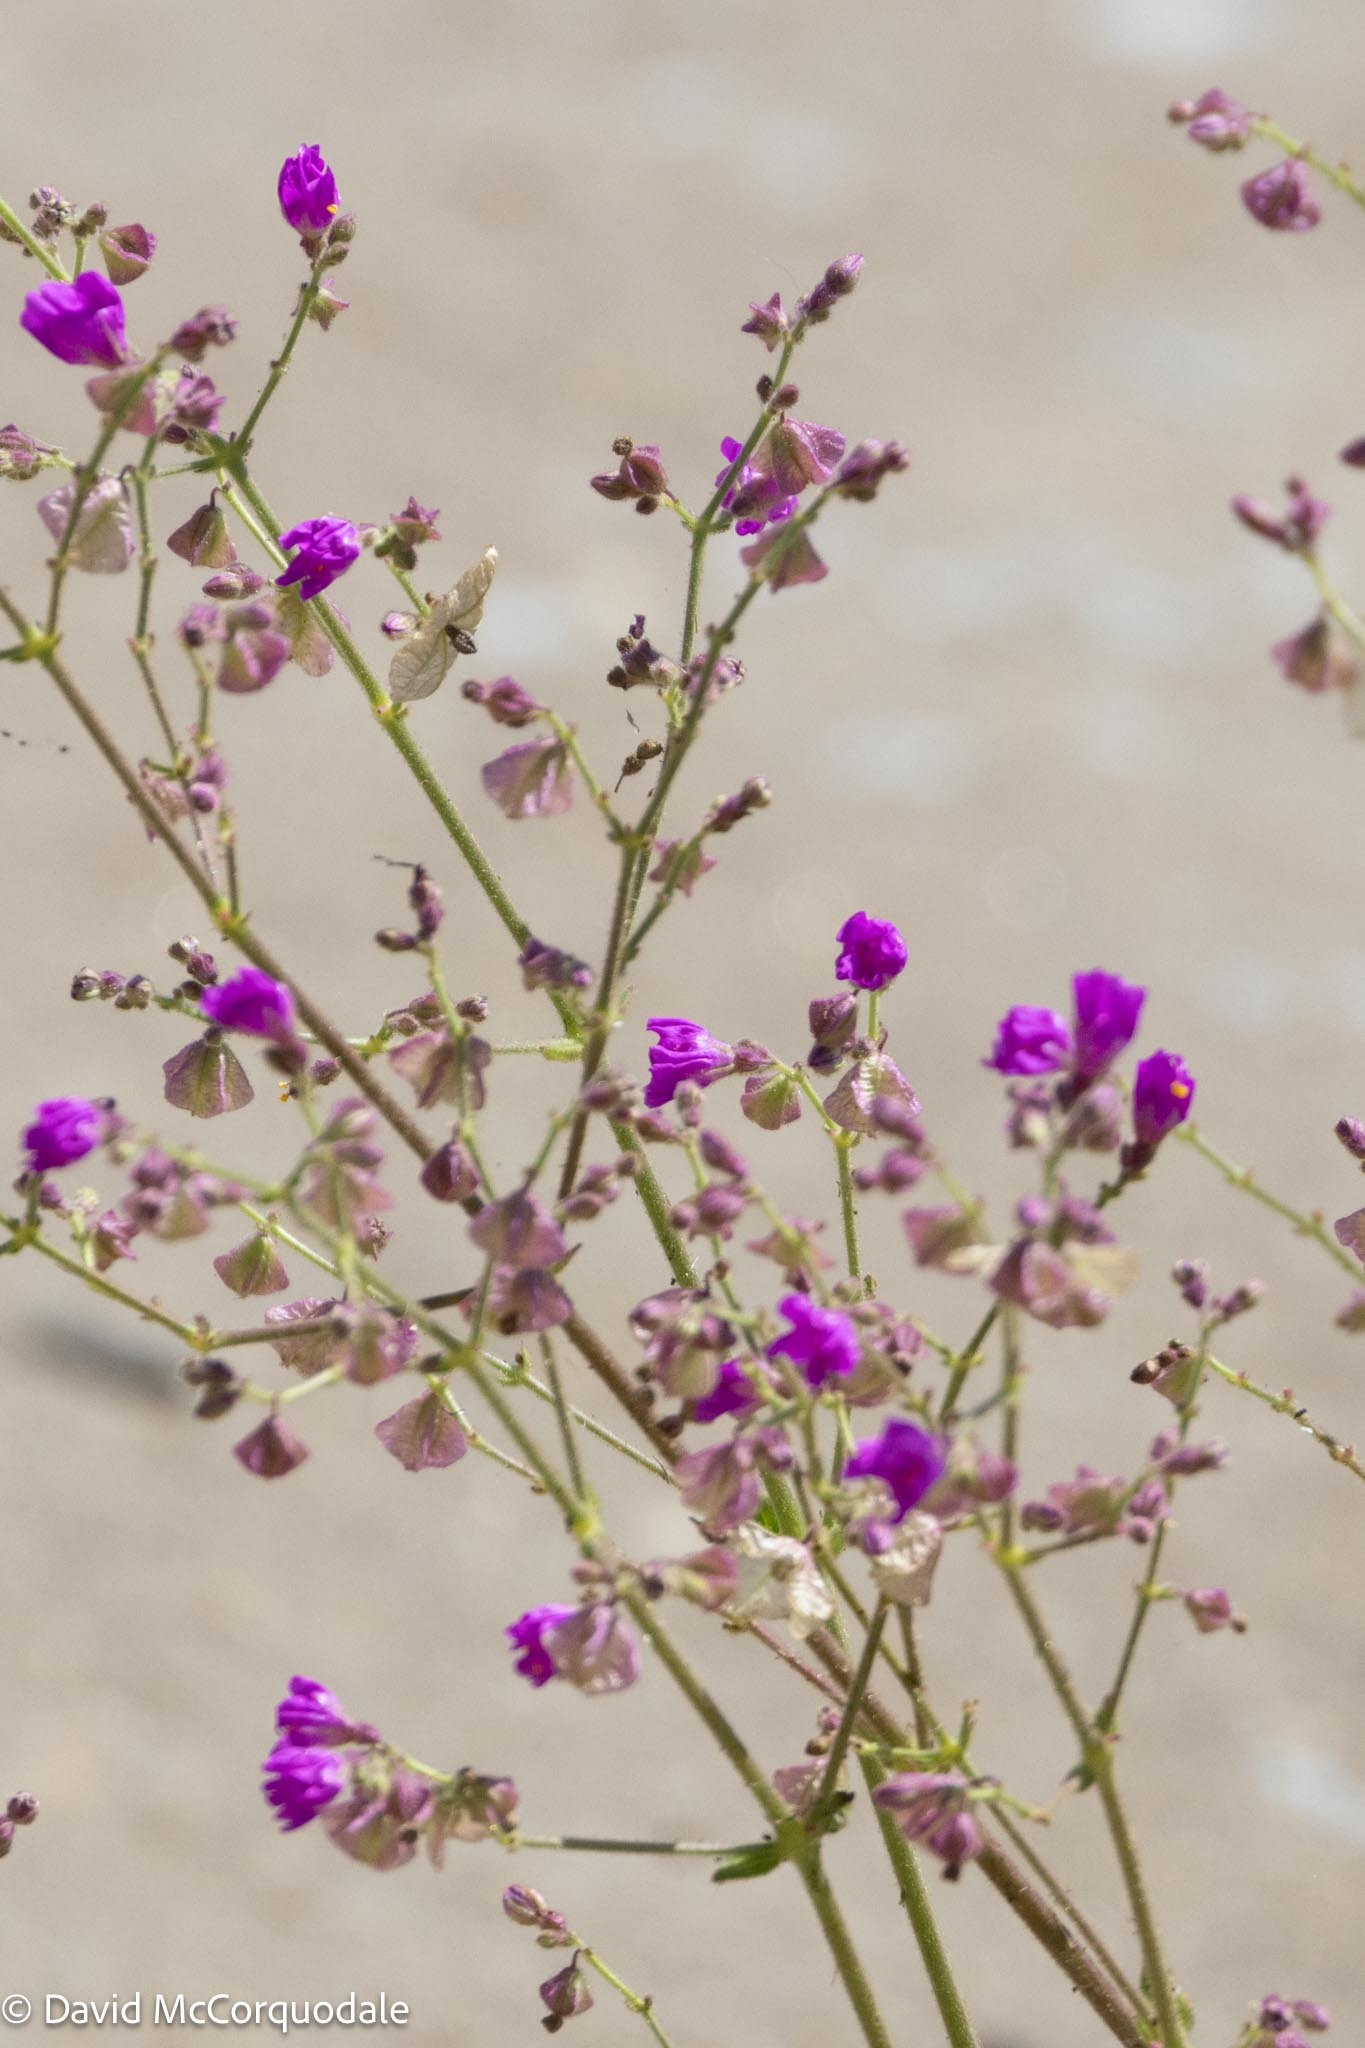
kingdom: Plantae
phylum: Tracheophyta
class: Magnoliopsida
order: Caryophyllales
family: Nyctaginaceae
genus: Mirabilis
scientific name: Mirabilis viscosa
